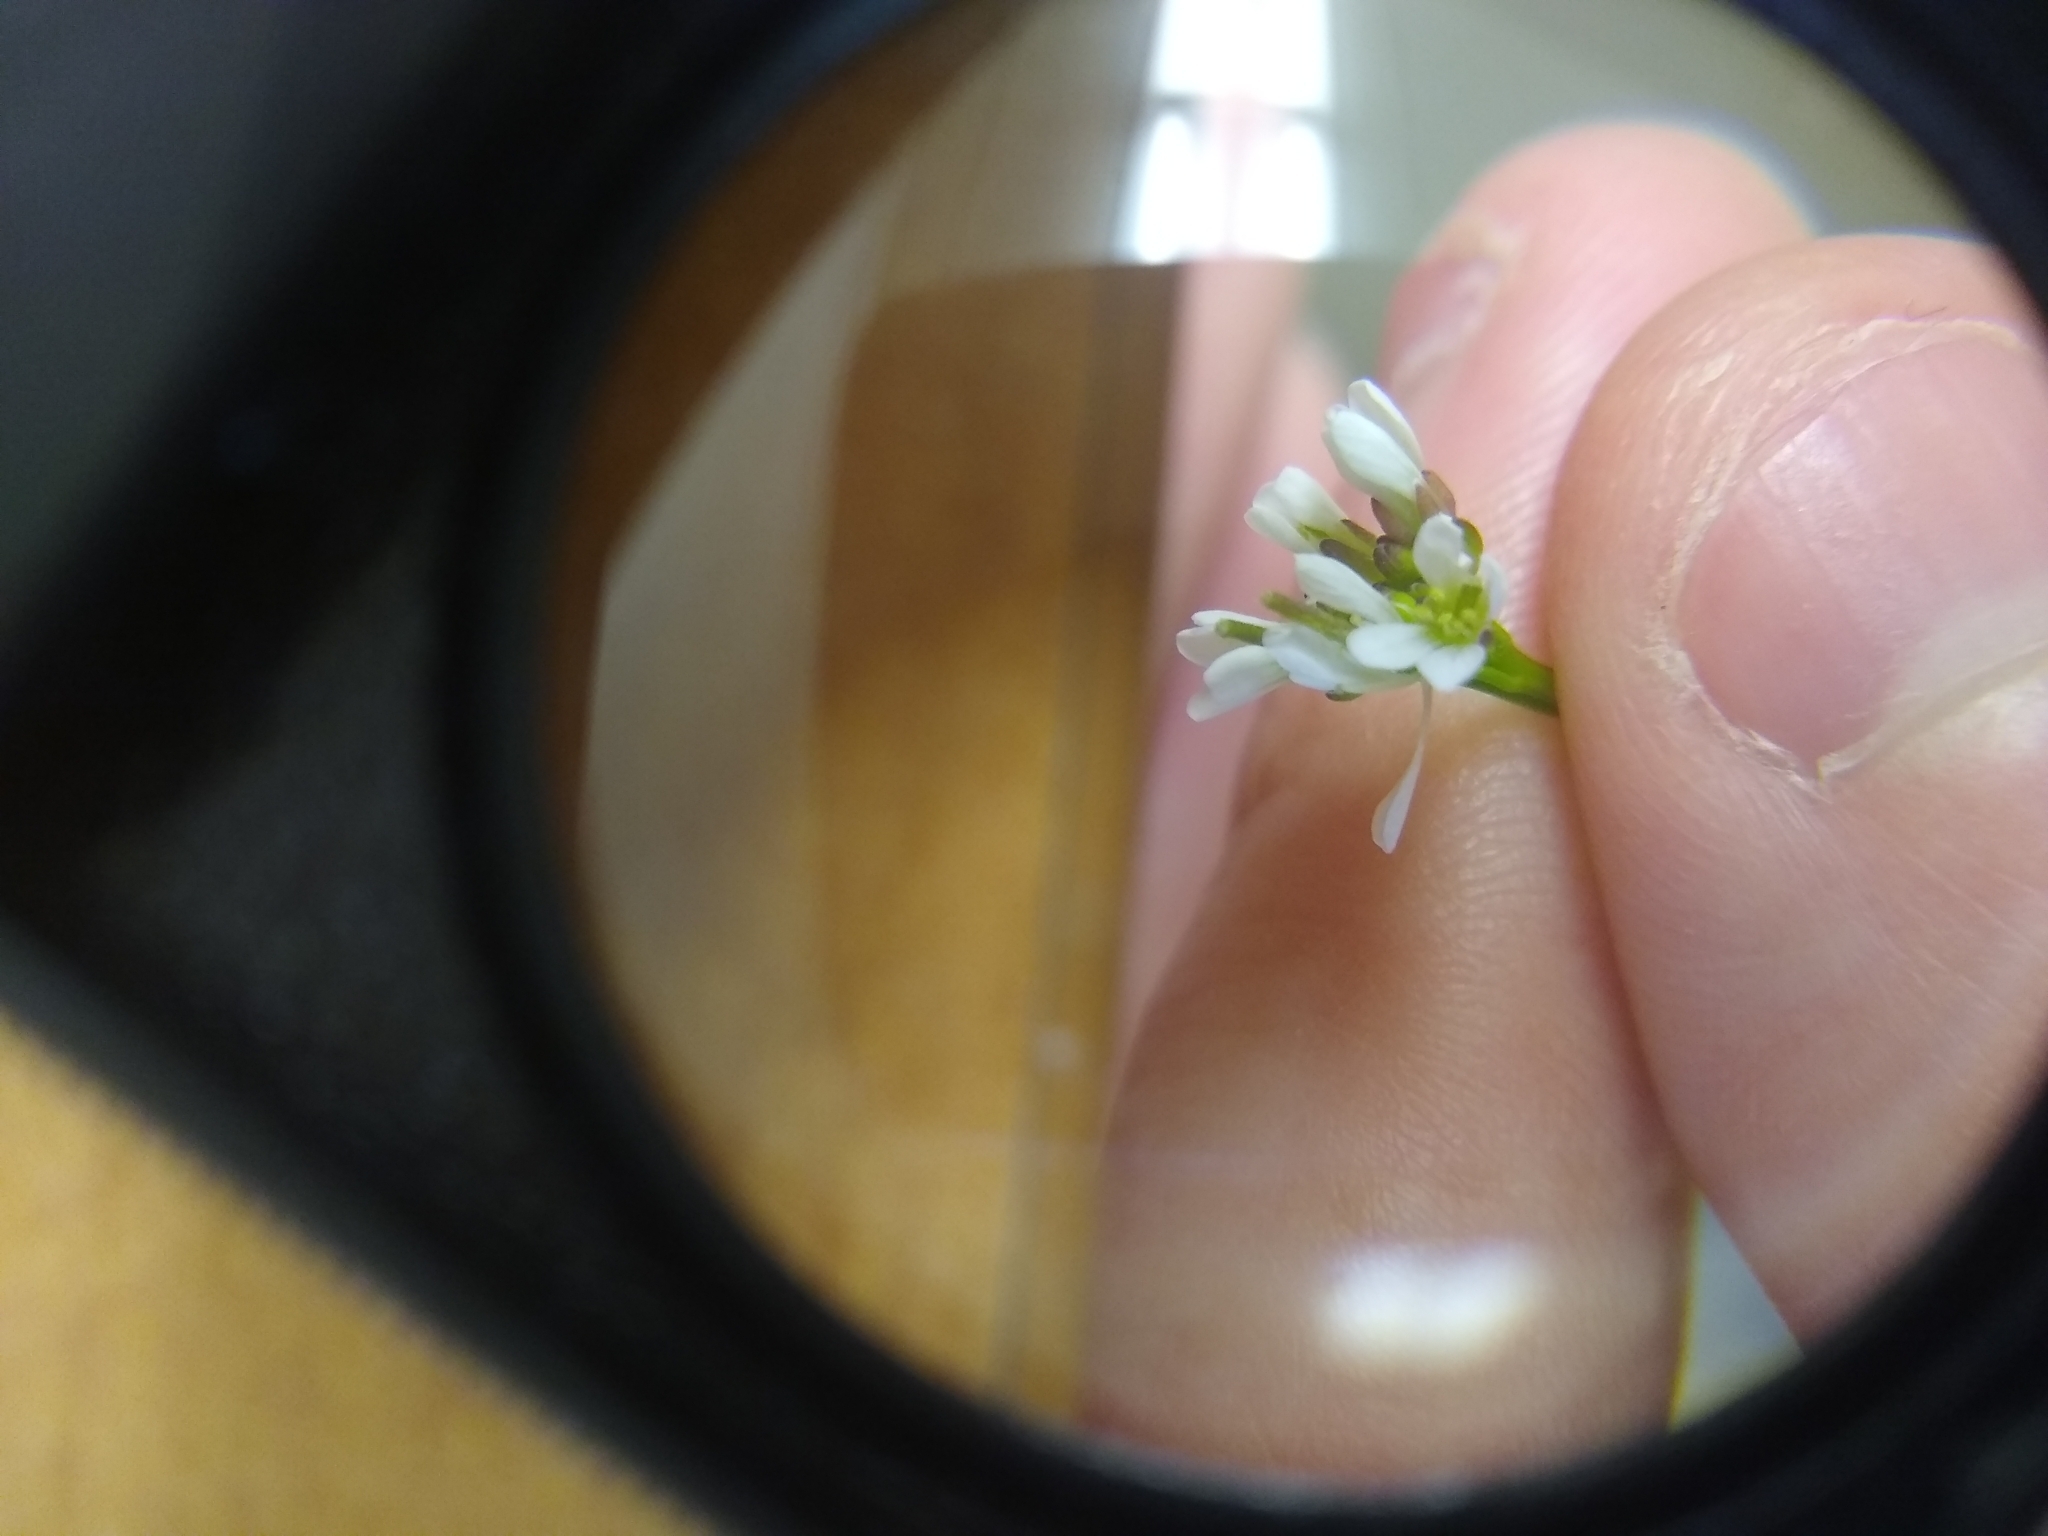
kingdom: Plantae
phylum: Tracheophyta
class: Magnoliopsida
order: Brassicales
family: Brassicaceae
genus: Cardamine
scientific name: Cardamine hirsuta
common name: Hairy bittercress
